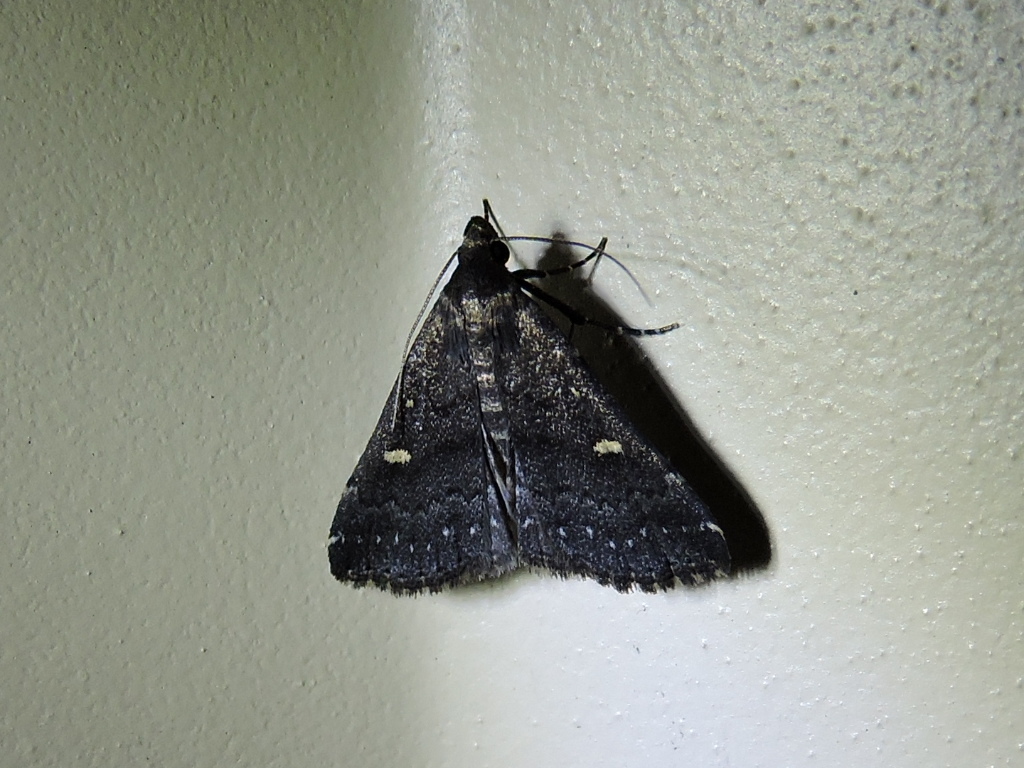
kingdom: Animalia
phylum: Arthropoda
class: Insecta
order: Lepidoptera
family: Erebidae
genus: Tetanolita
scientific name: Tetanolita mynesalis
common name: Smoky tetanolita moth
